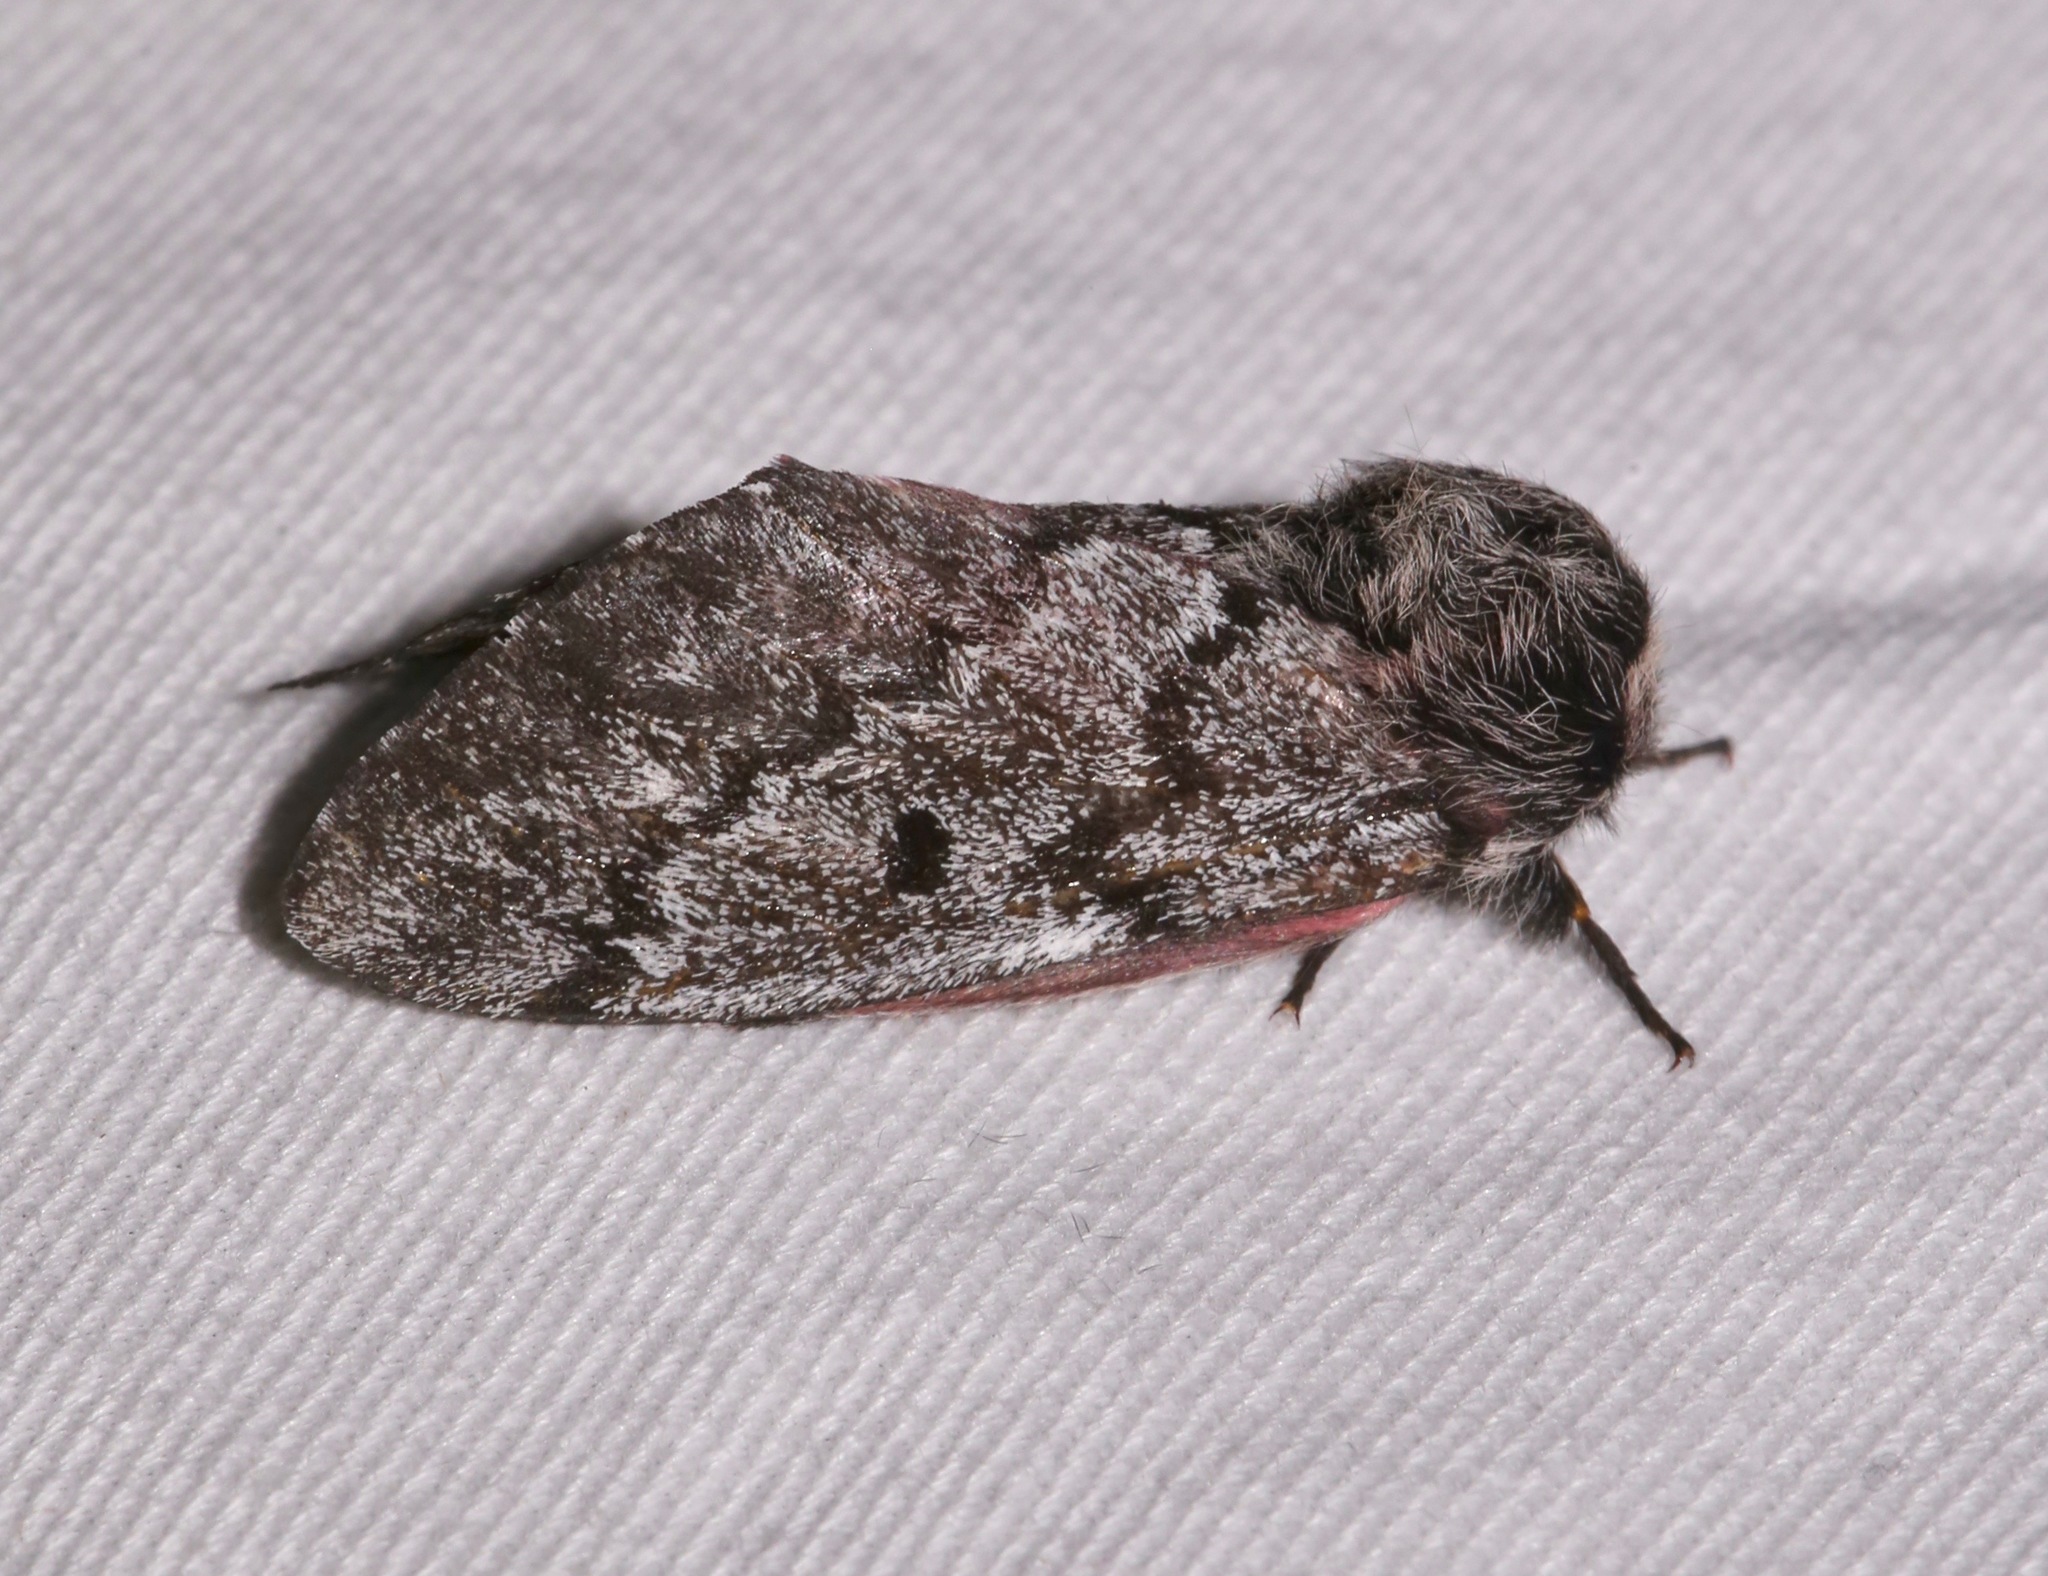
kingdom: Animalia
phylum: Arthropoda
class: Insecta
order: Lepidoptera
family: Saturniidae
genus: Coloradia
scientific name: Coloradia doris
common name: Doris' pinemoth
